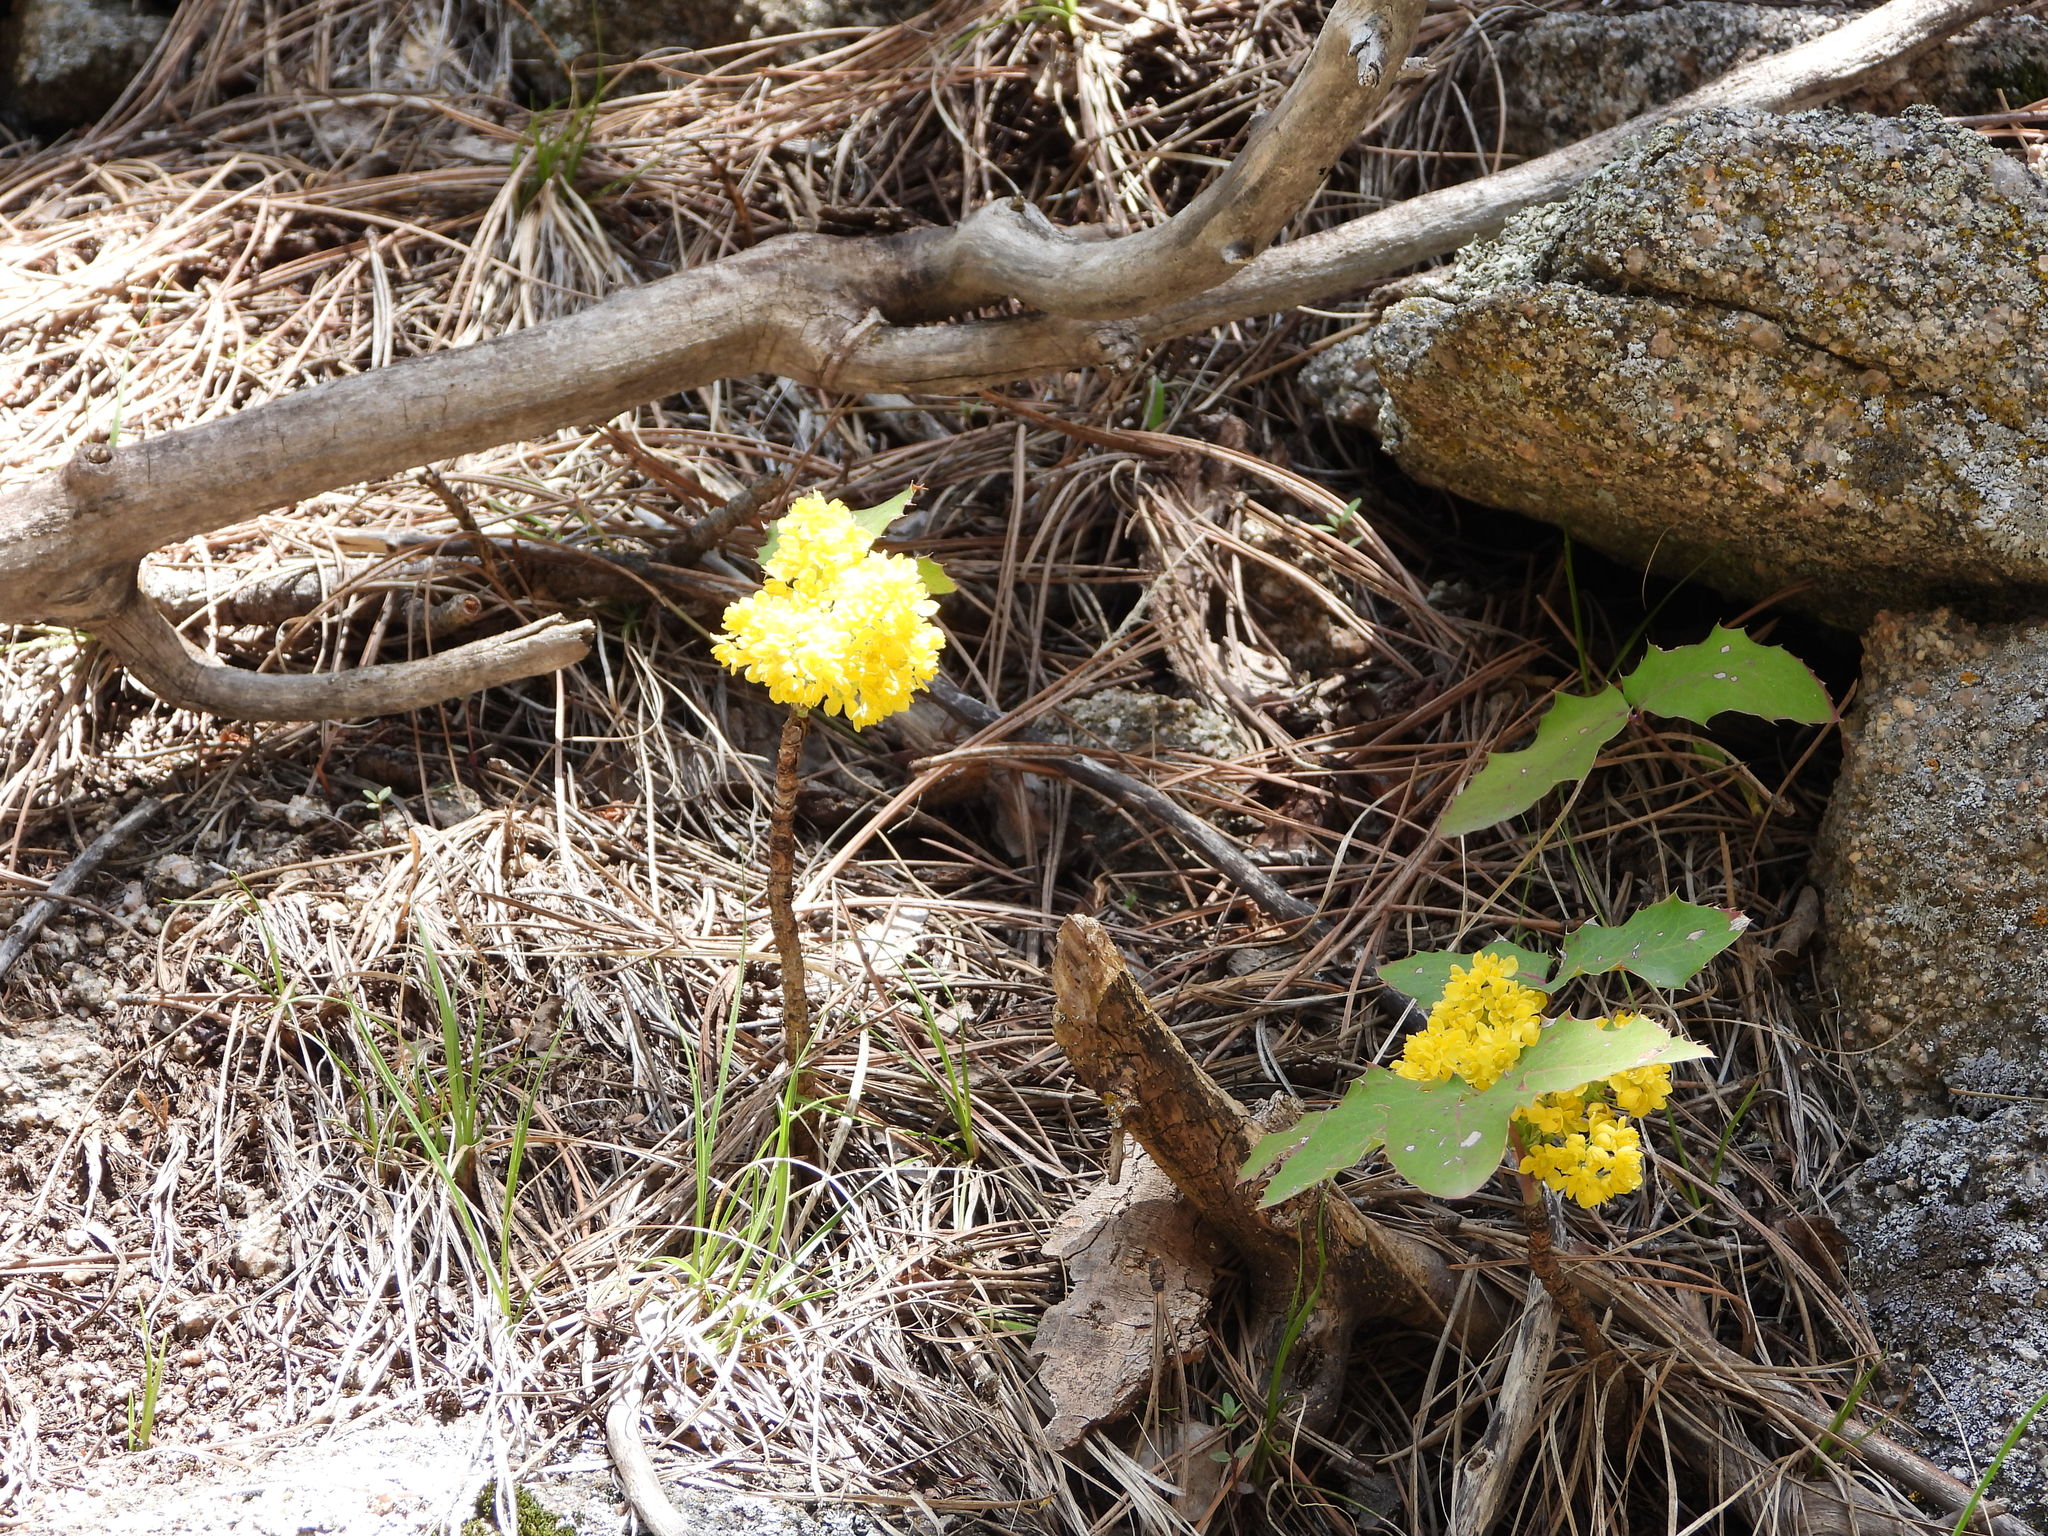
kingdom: Plantae
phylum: Tracheophyta
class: Magnoliopsida
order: Ranunculales
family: Berberidaceae
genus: Mahonia
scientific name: Mahonia repens
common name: Creeping oregon-grape
